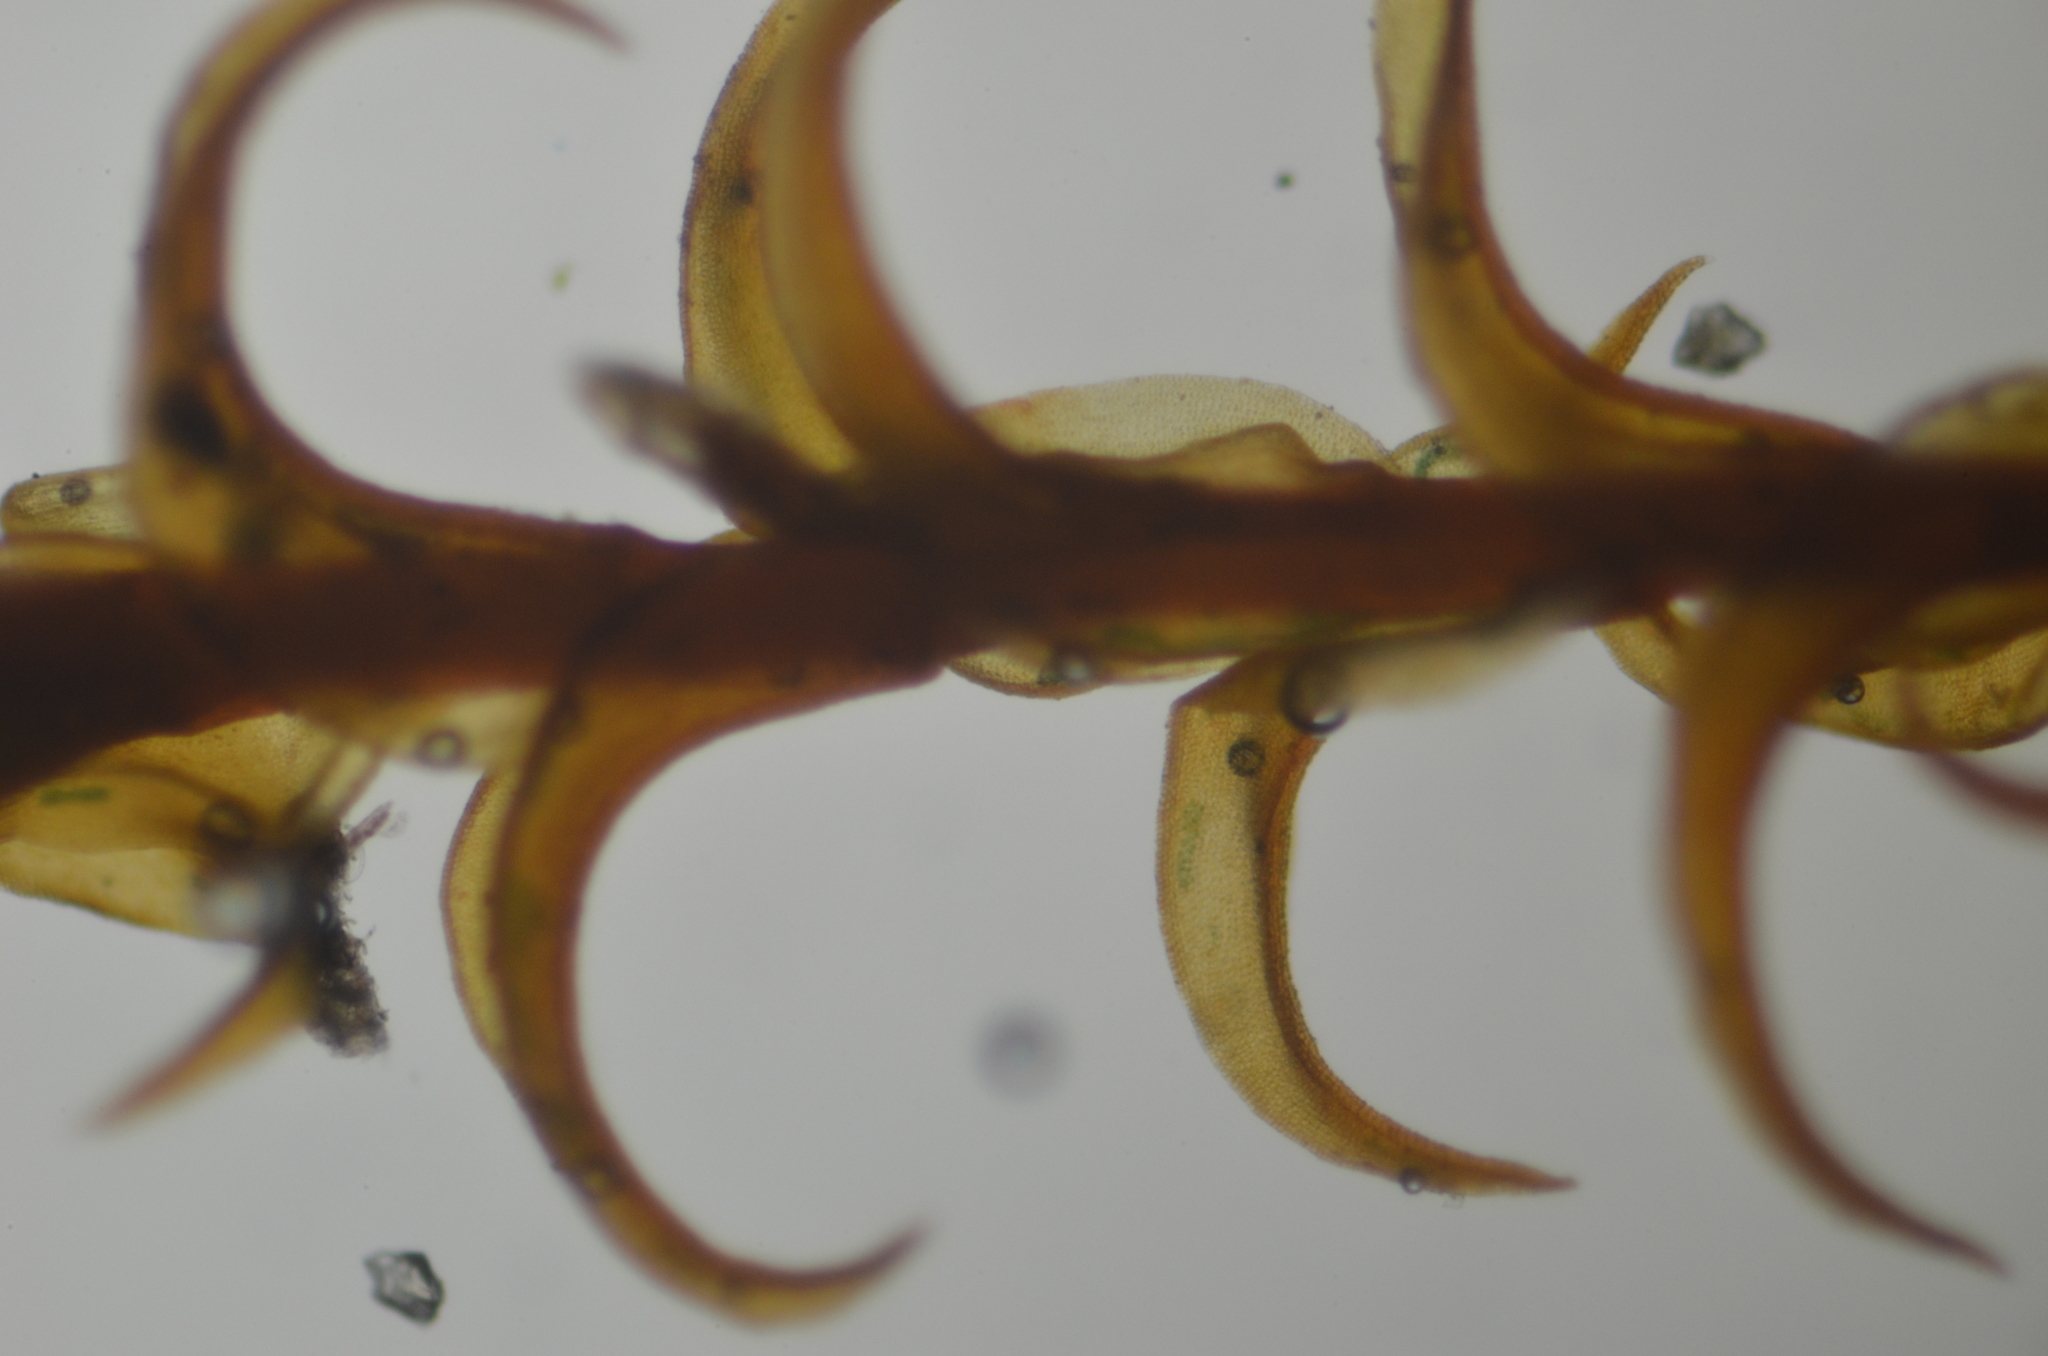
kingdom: Plantae
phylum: Bryophyta
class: Bryopsida
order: Pottiales
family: Pottiaceae
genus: Geheebia
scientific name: Geheebia ferruginea
